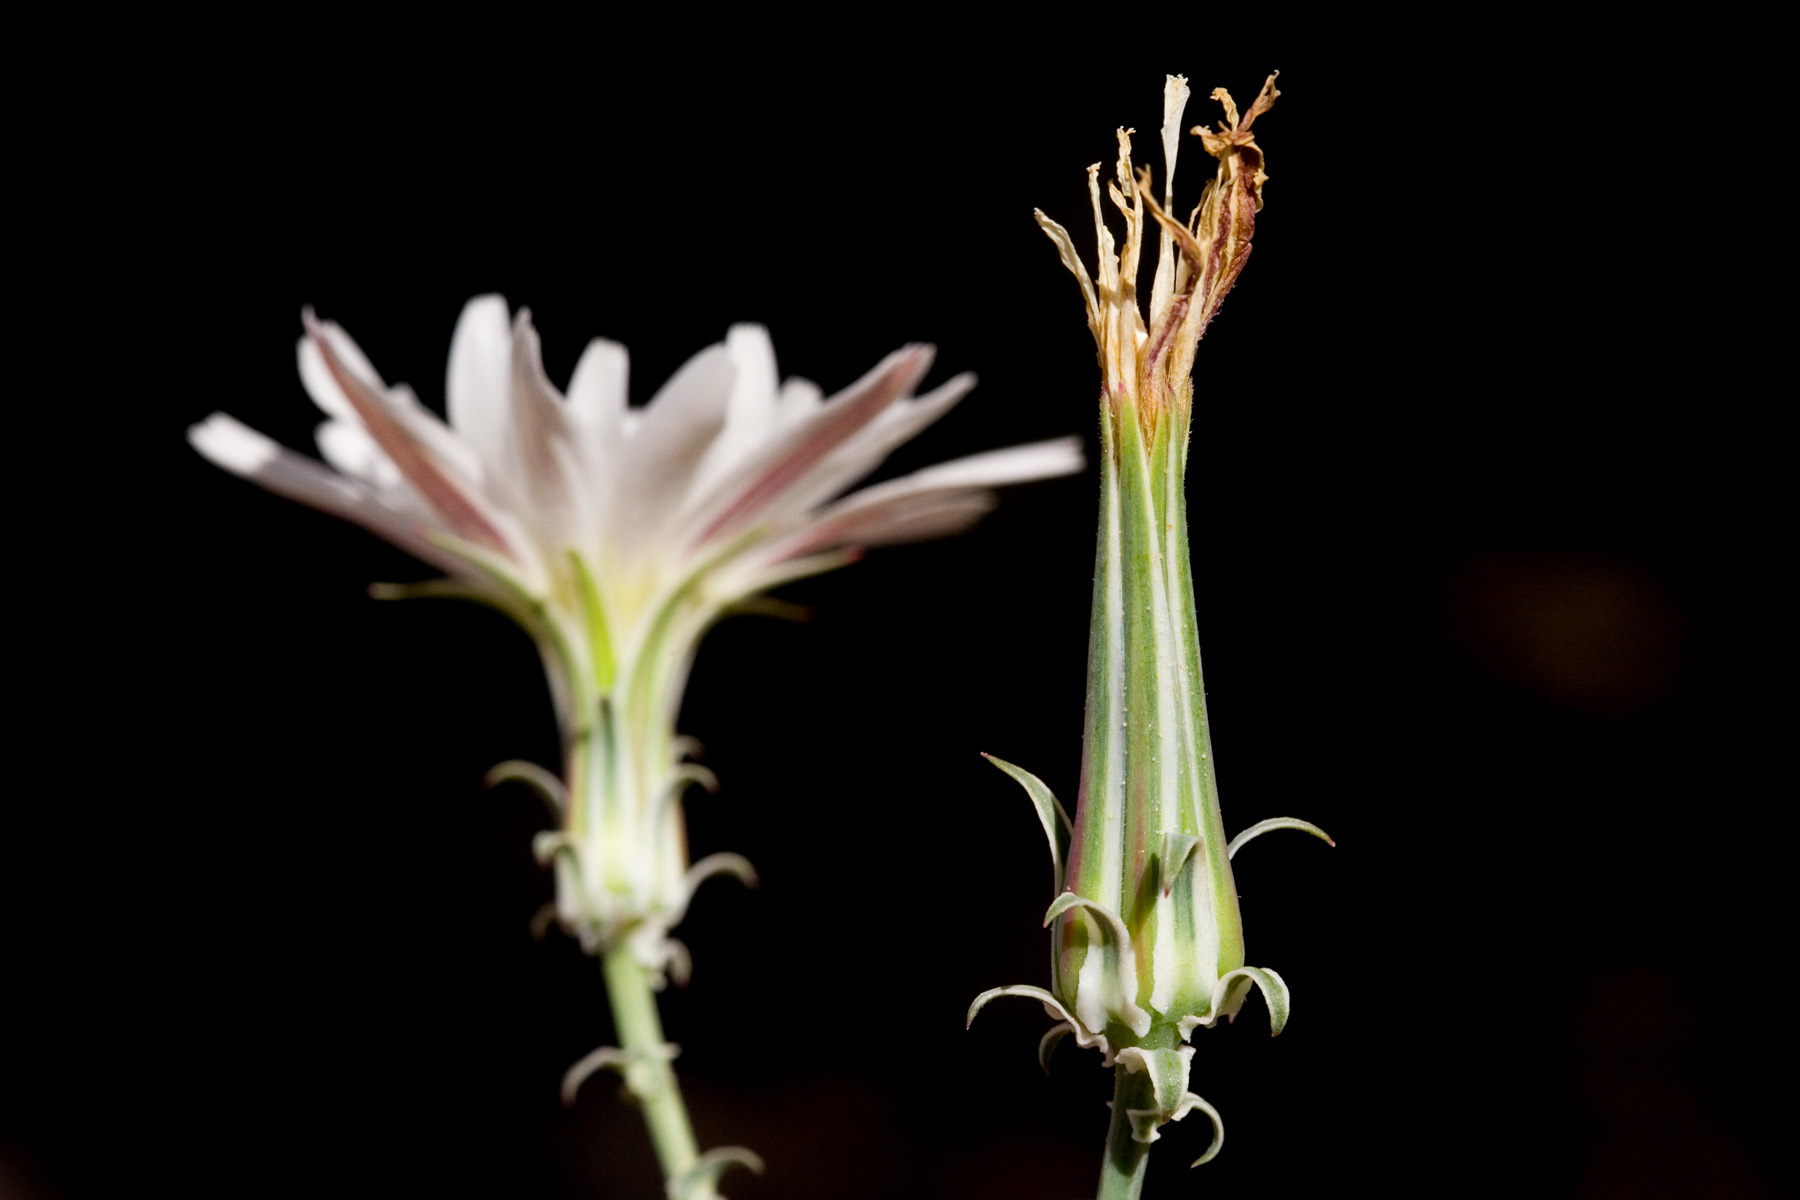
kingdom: Plantae
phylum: Tracheophyta
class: Magnoliopsida
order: Asterales
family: Asteraceae
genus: Rafinesquia
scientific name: Rafinesquia neomexicana
